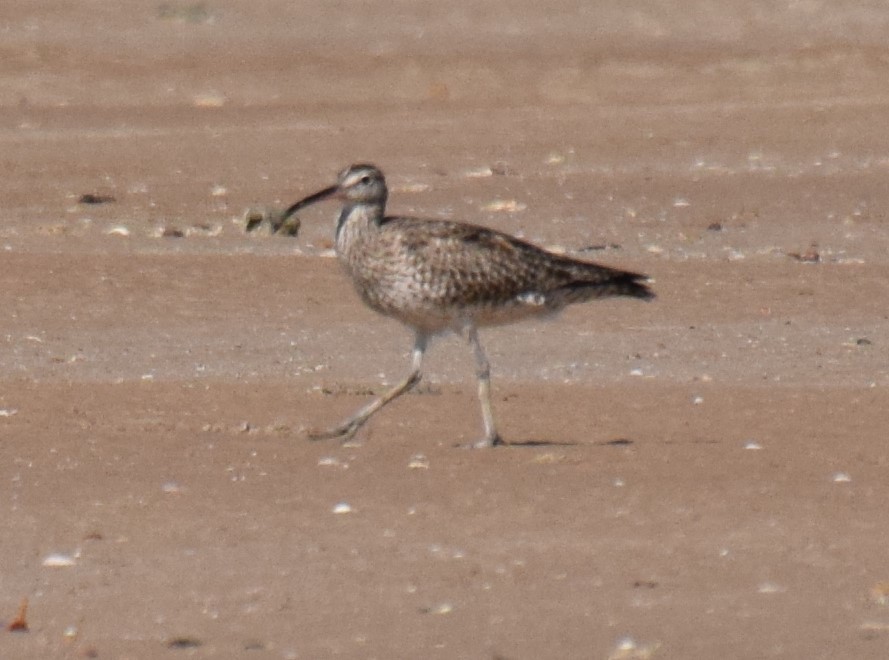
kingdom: Animalia
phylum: Chordata
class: Aves
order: Charadriiformes
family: Scolopacidae
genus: Numenius
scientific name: Numenius phaeopus
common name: Whimbrel
